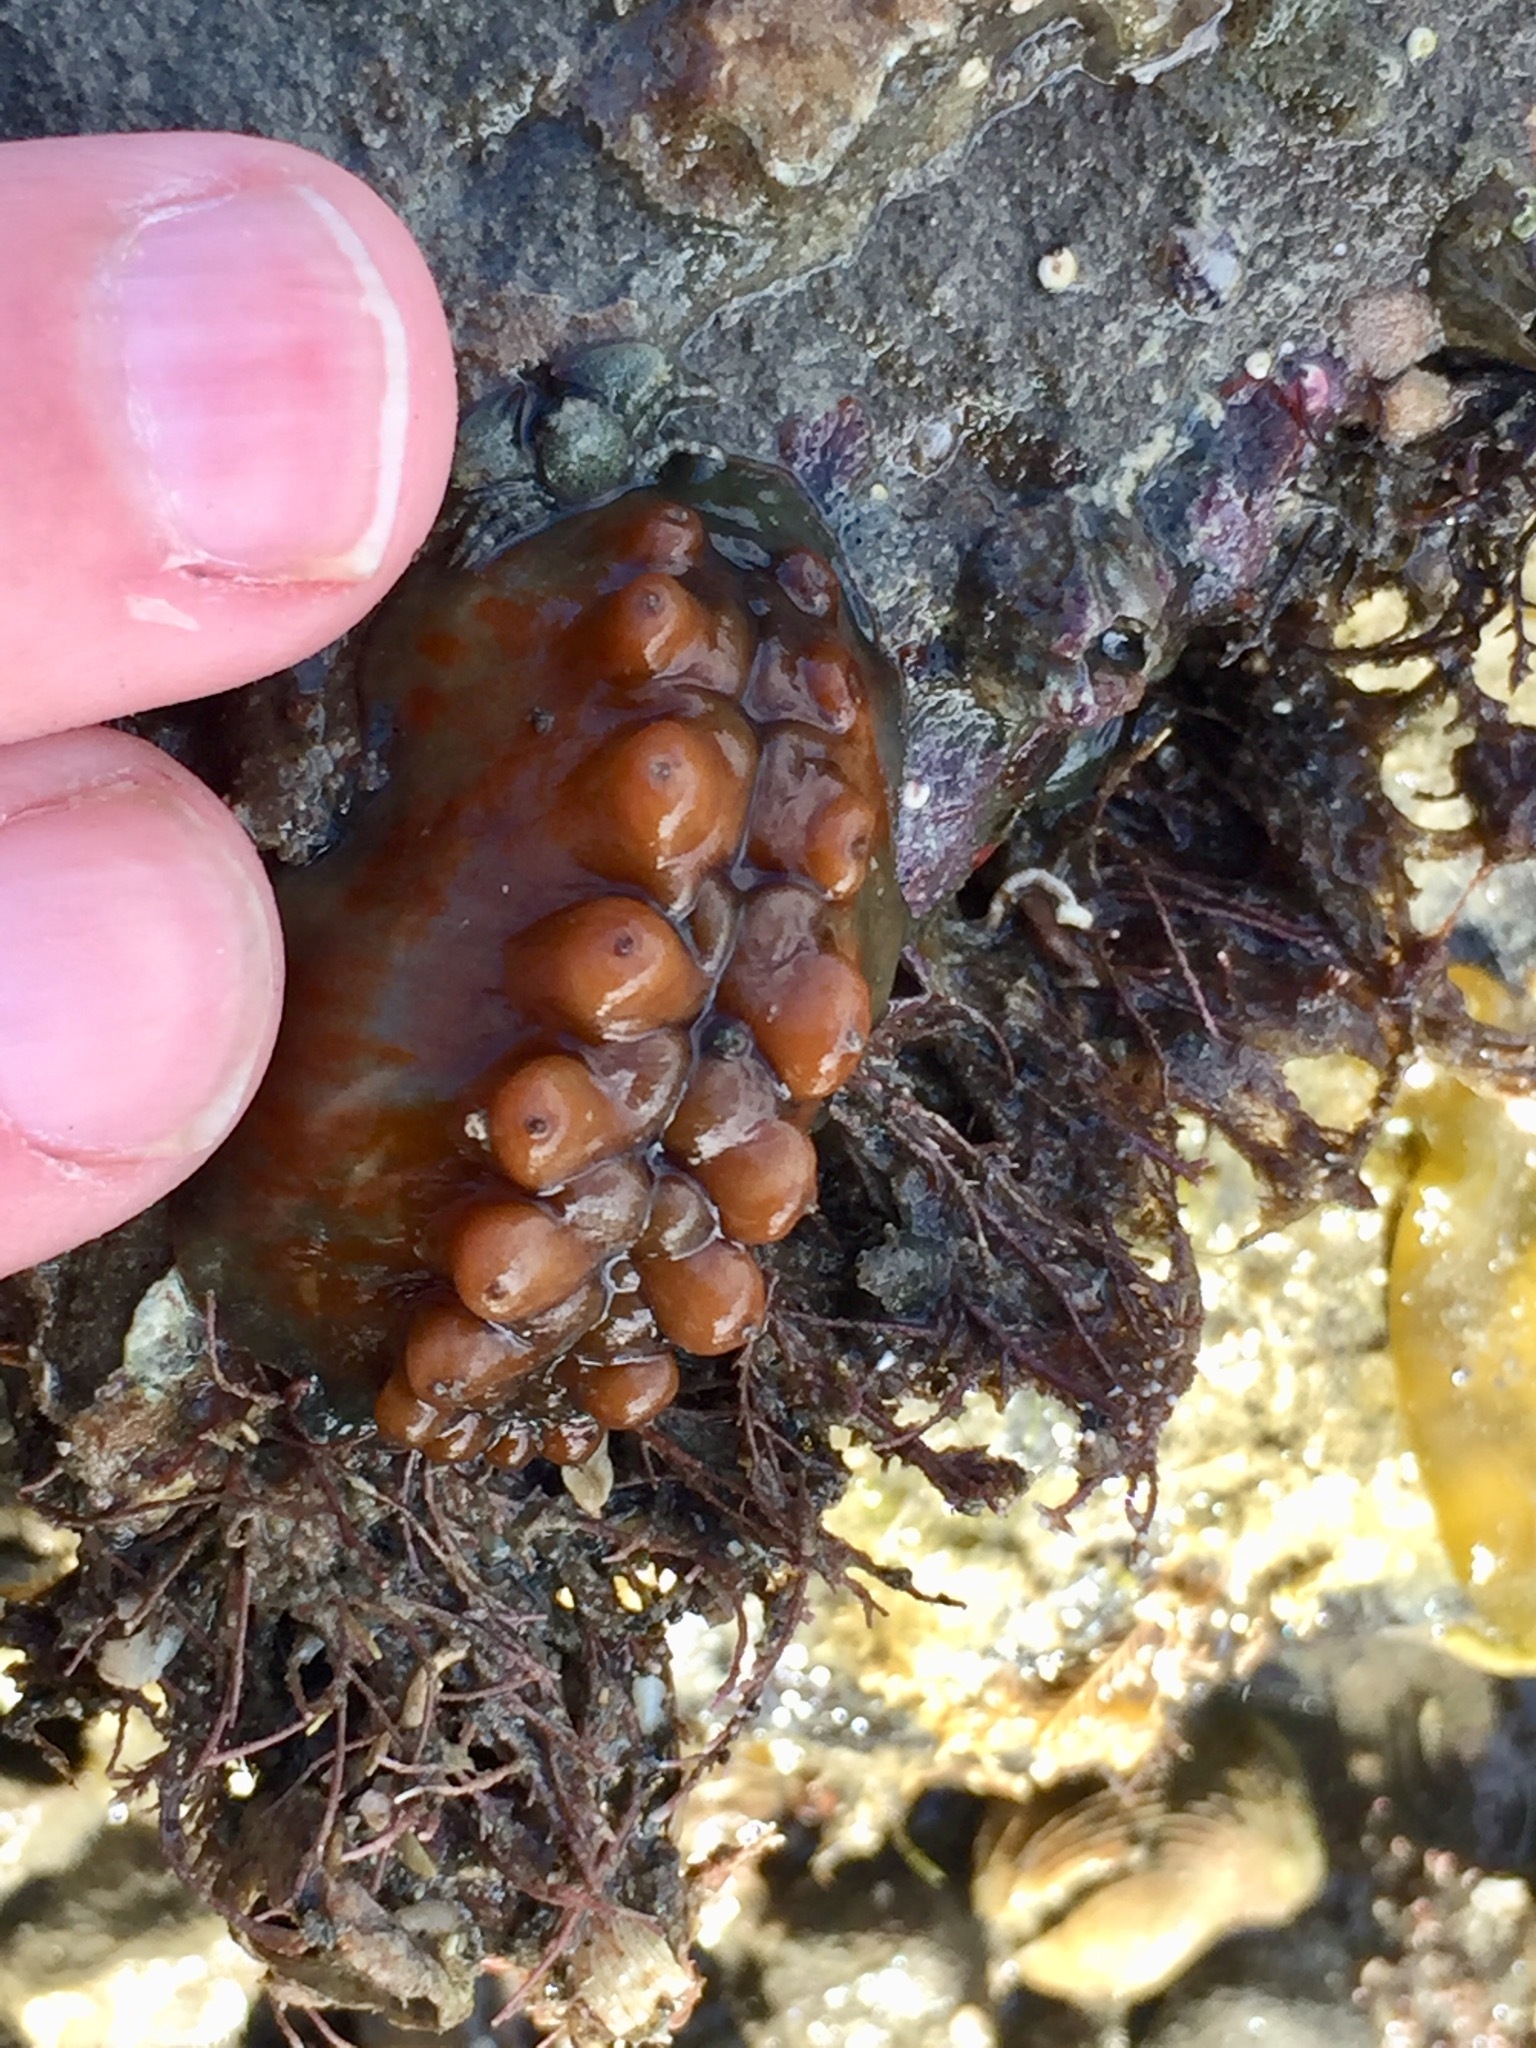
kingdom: Animalia
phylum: Mollusca
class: Polyplacophora
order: Chitonida
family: Acanthochitonidae
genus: Cryptoconchus
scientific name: Cryptoconchus porosus
